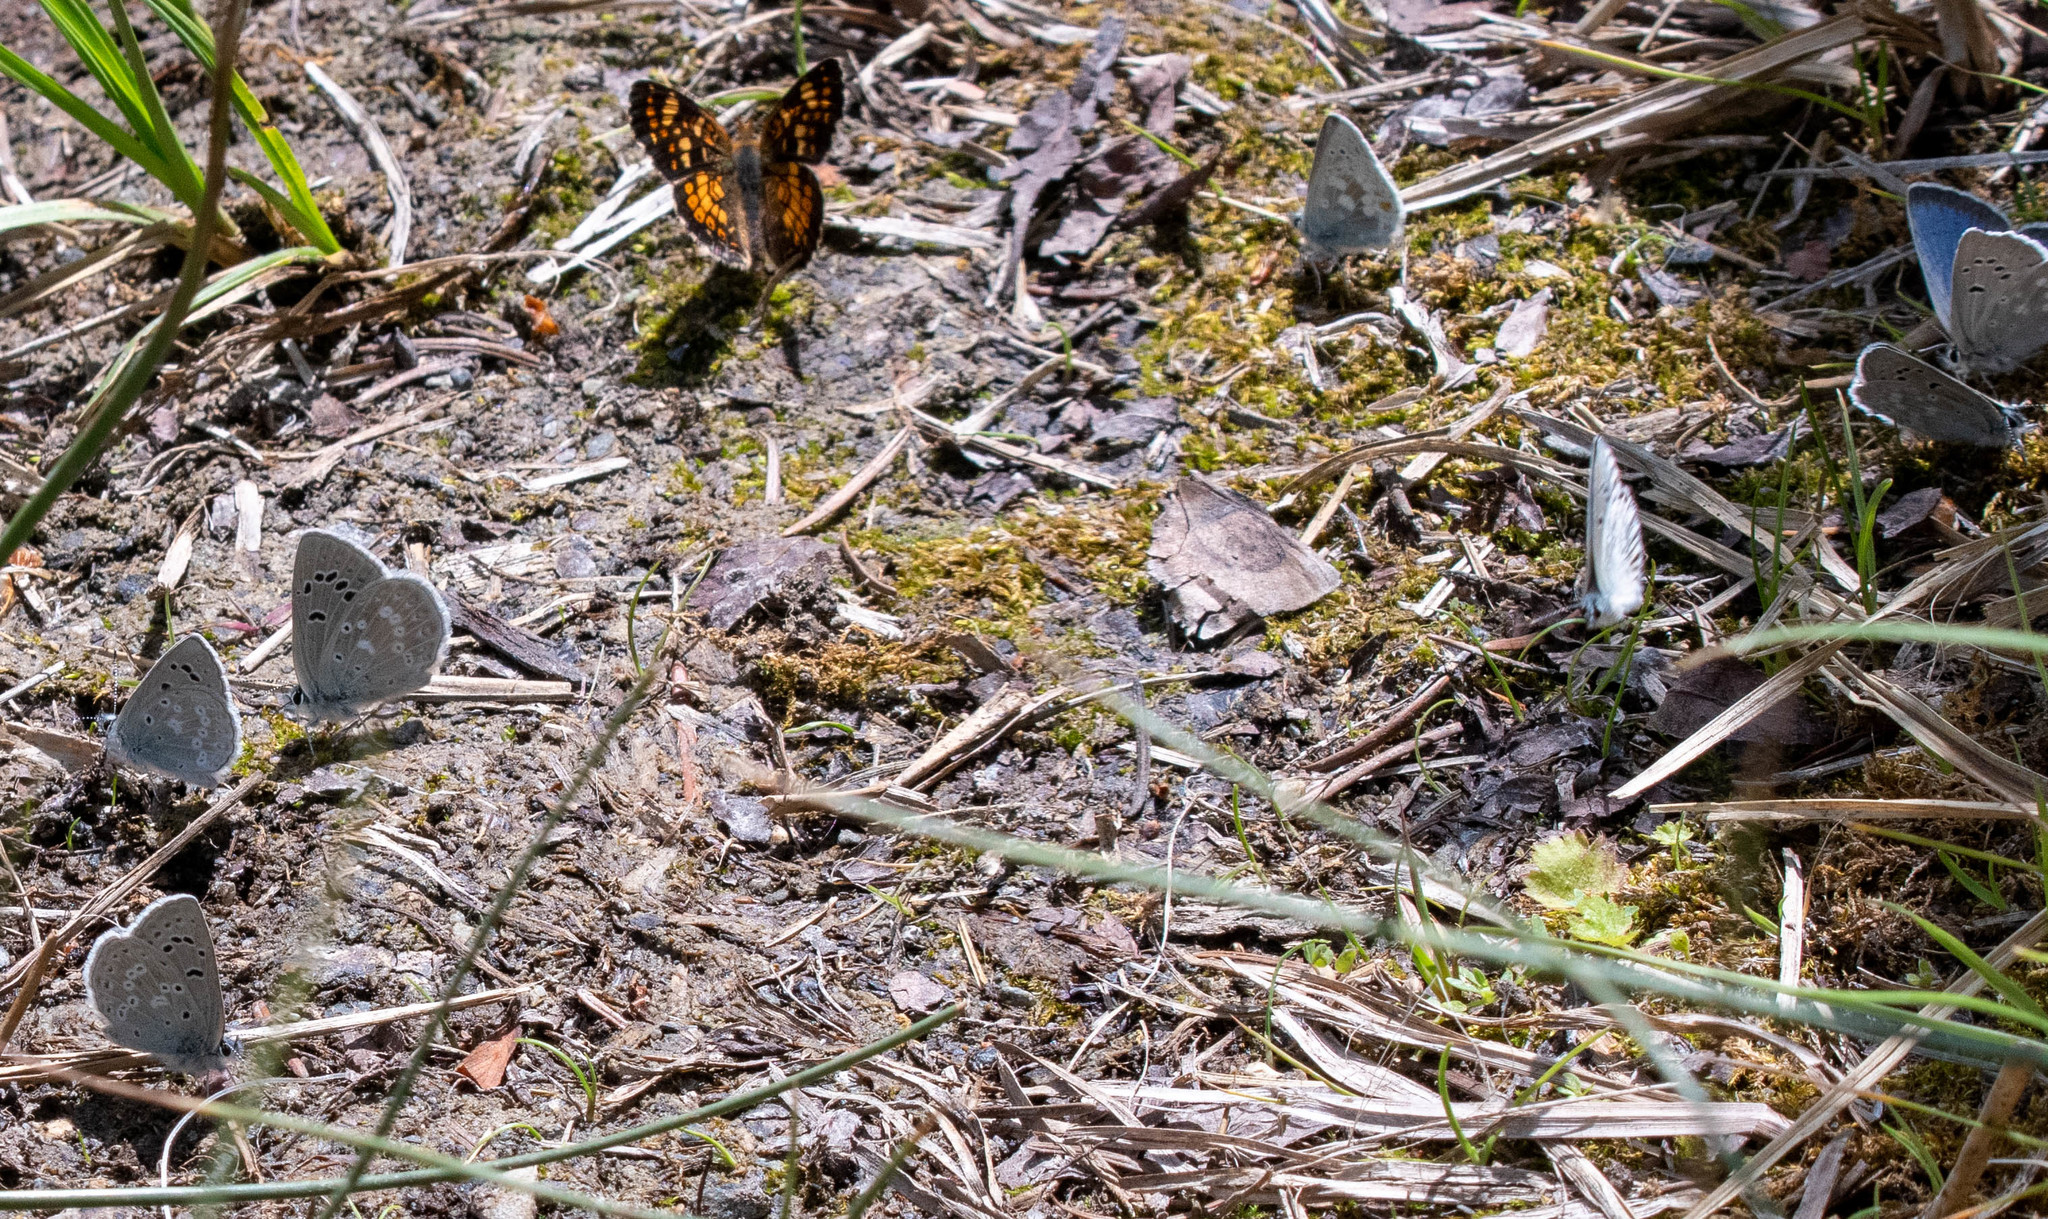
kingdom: Animalia
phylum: Arthropoda
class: Insecta
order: Lepidoptera
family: Nymphalidae
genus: Phyciodes
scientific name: Phyciodes tharos
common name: Pearl crescent
